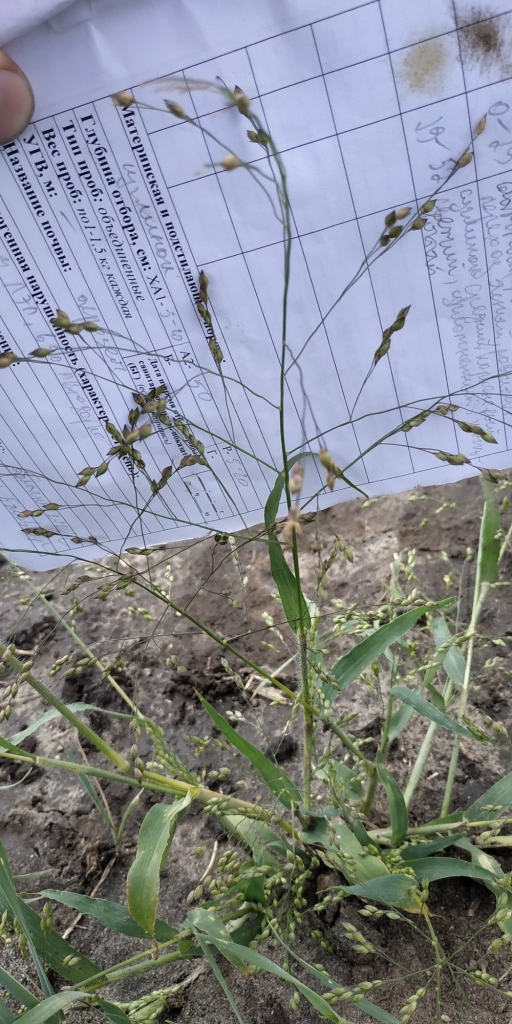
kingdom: Plantae
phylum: Tracheophyta
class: Liliopsida
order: Poales
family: Poaceae
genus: Panicum
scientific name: Panicum miliaceum
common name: Common millet
